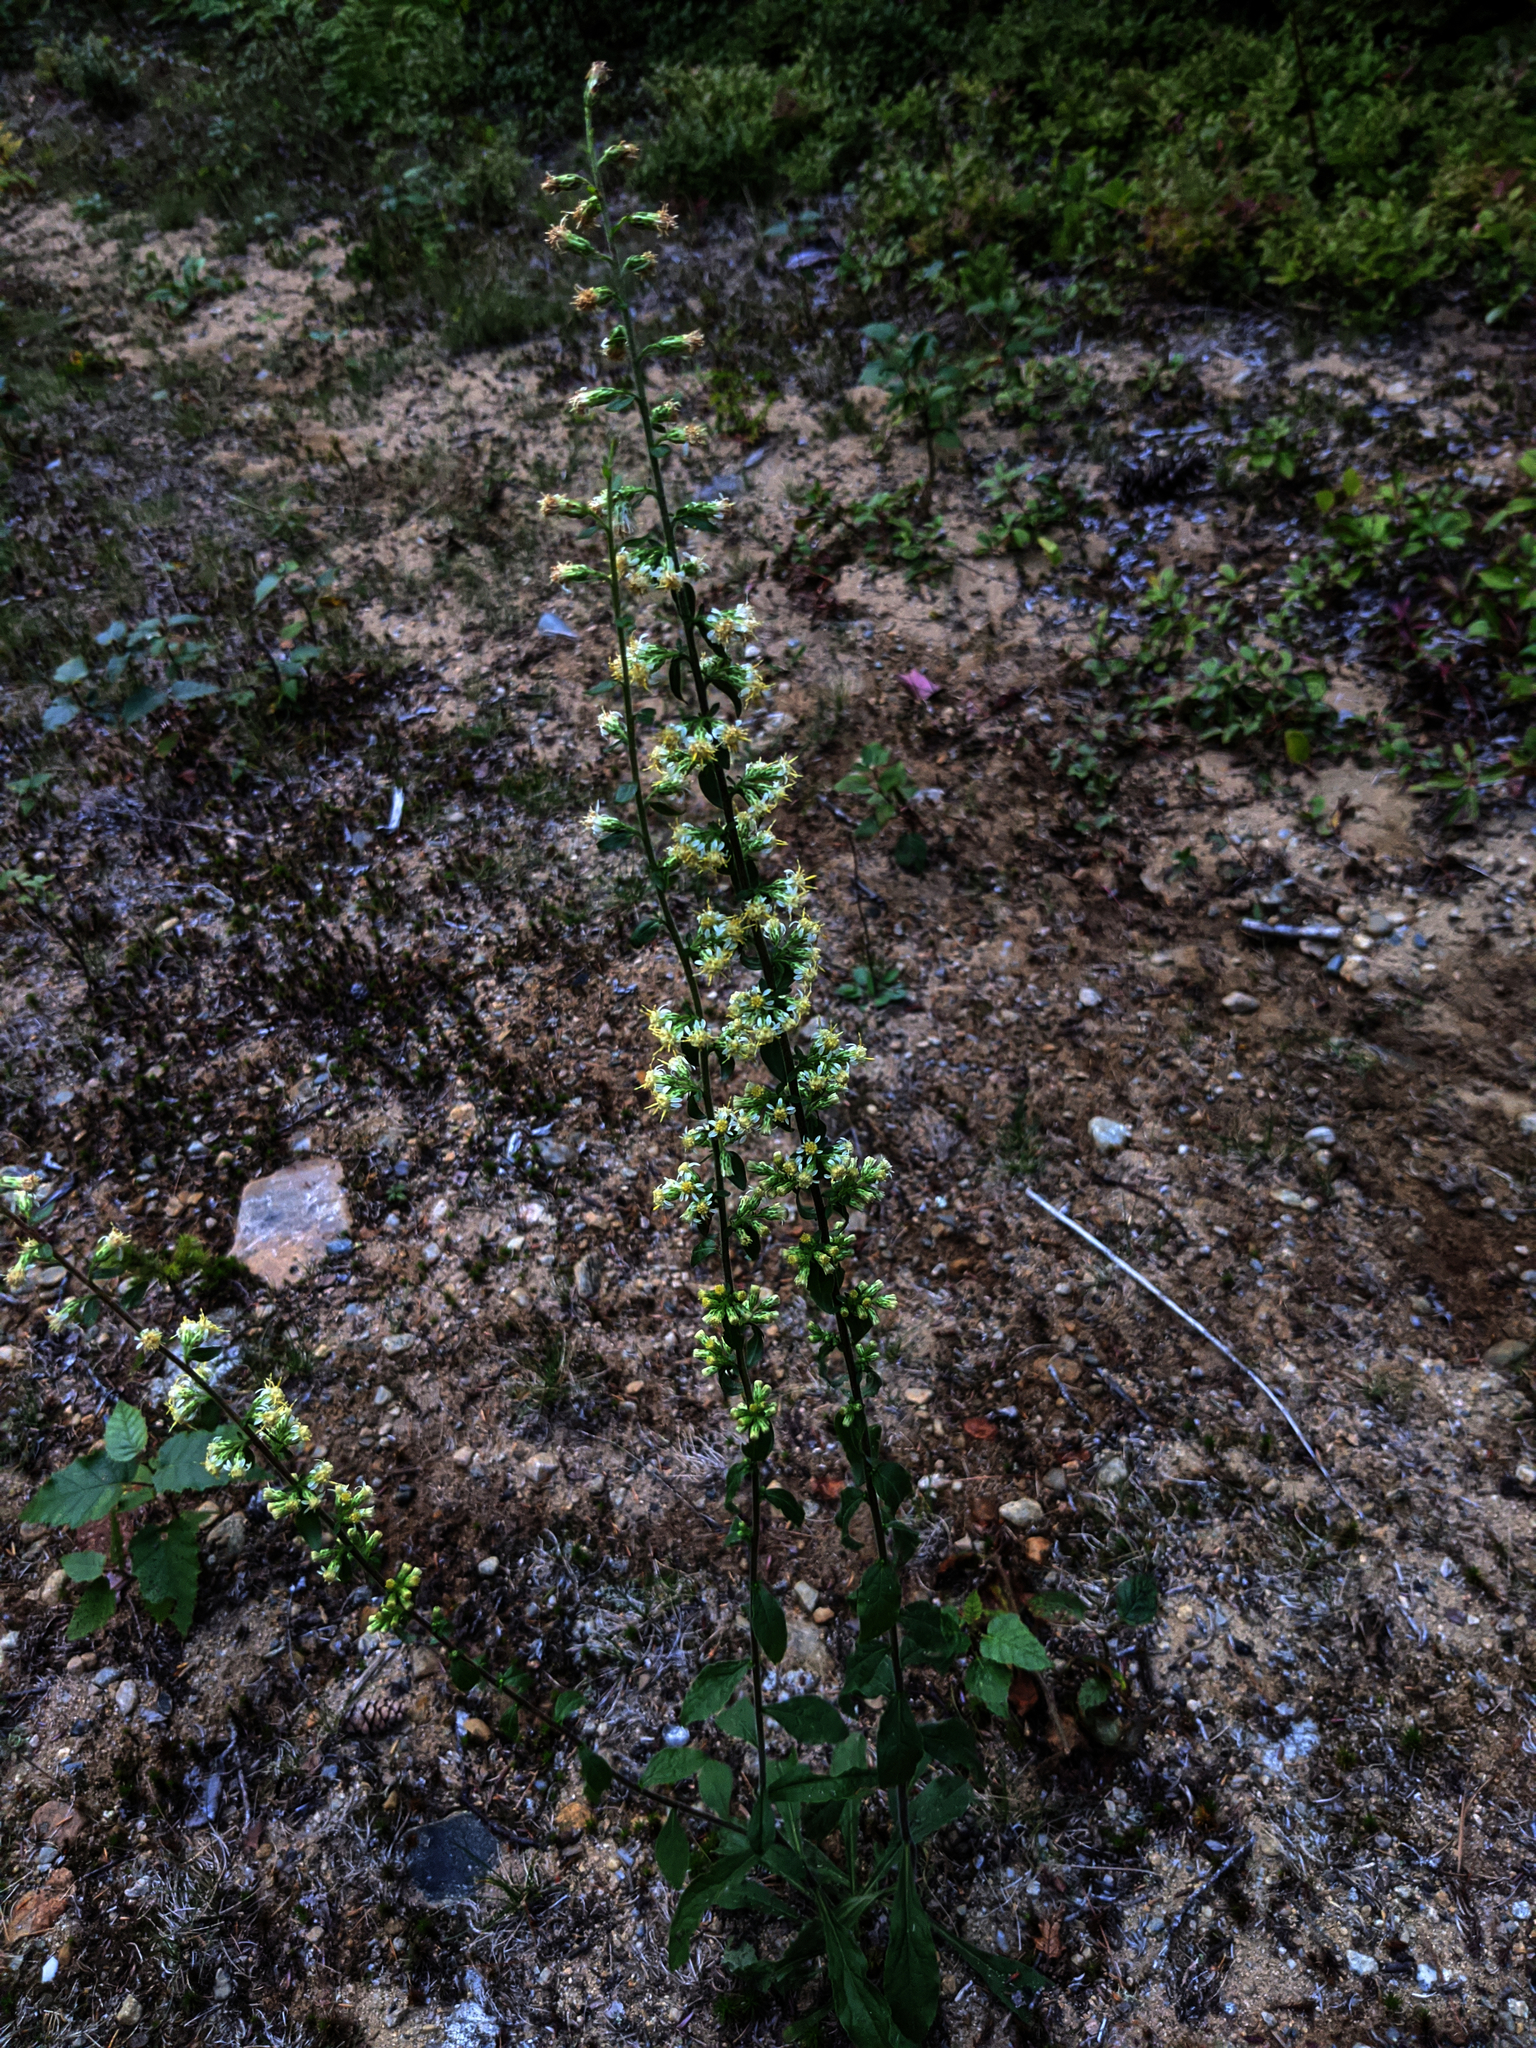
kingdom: Plantae
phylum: Tracheophyta
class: Magnoliopsida
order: Asterales
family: Asteraceae
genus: Solidago
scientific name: Solidago bicolor
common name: Silverrod
